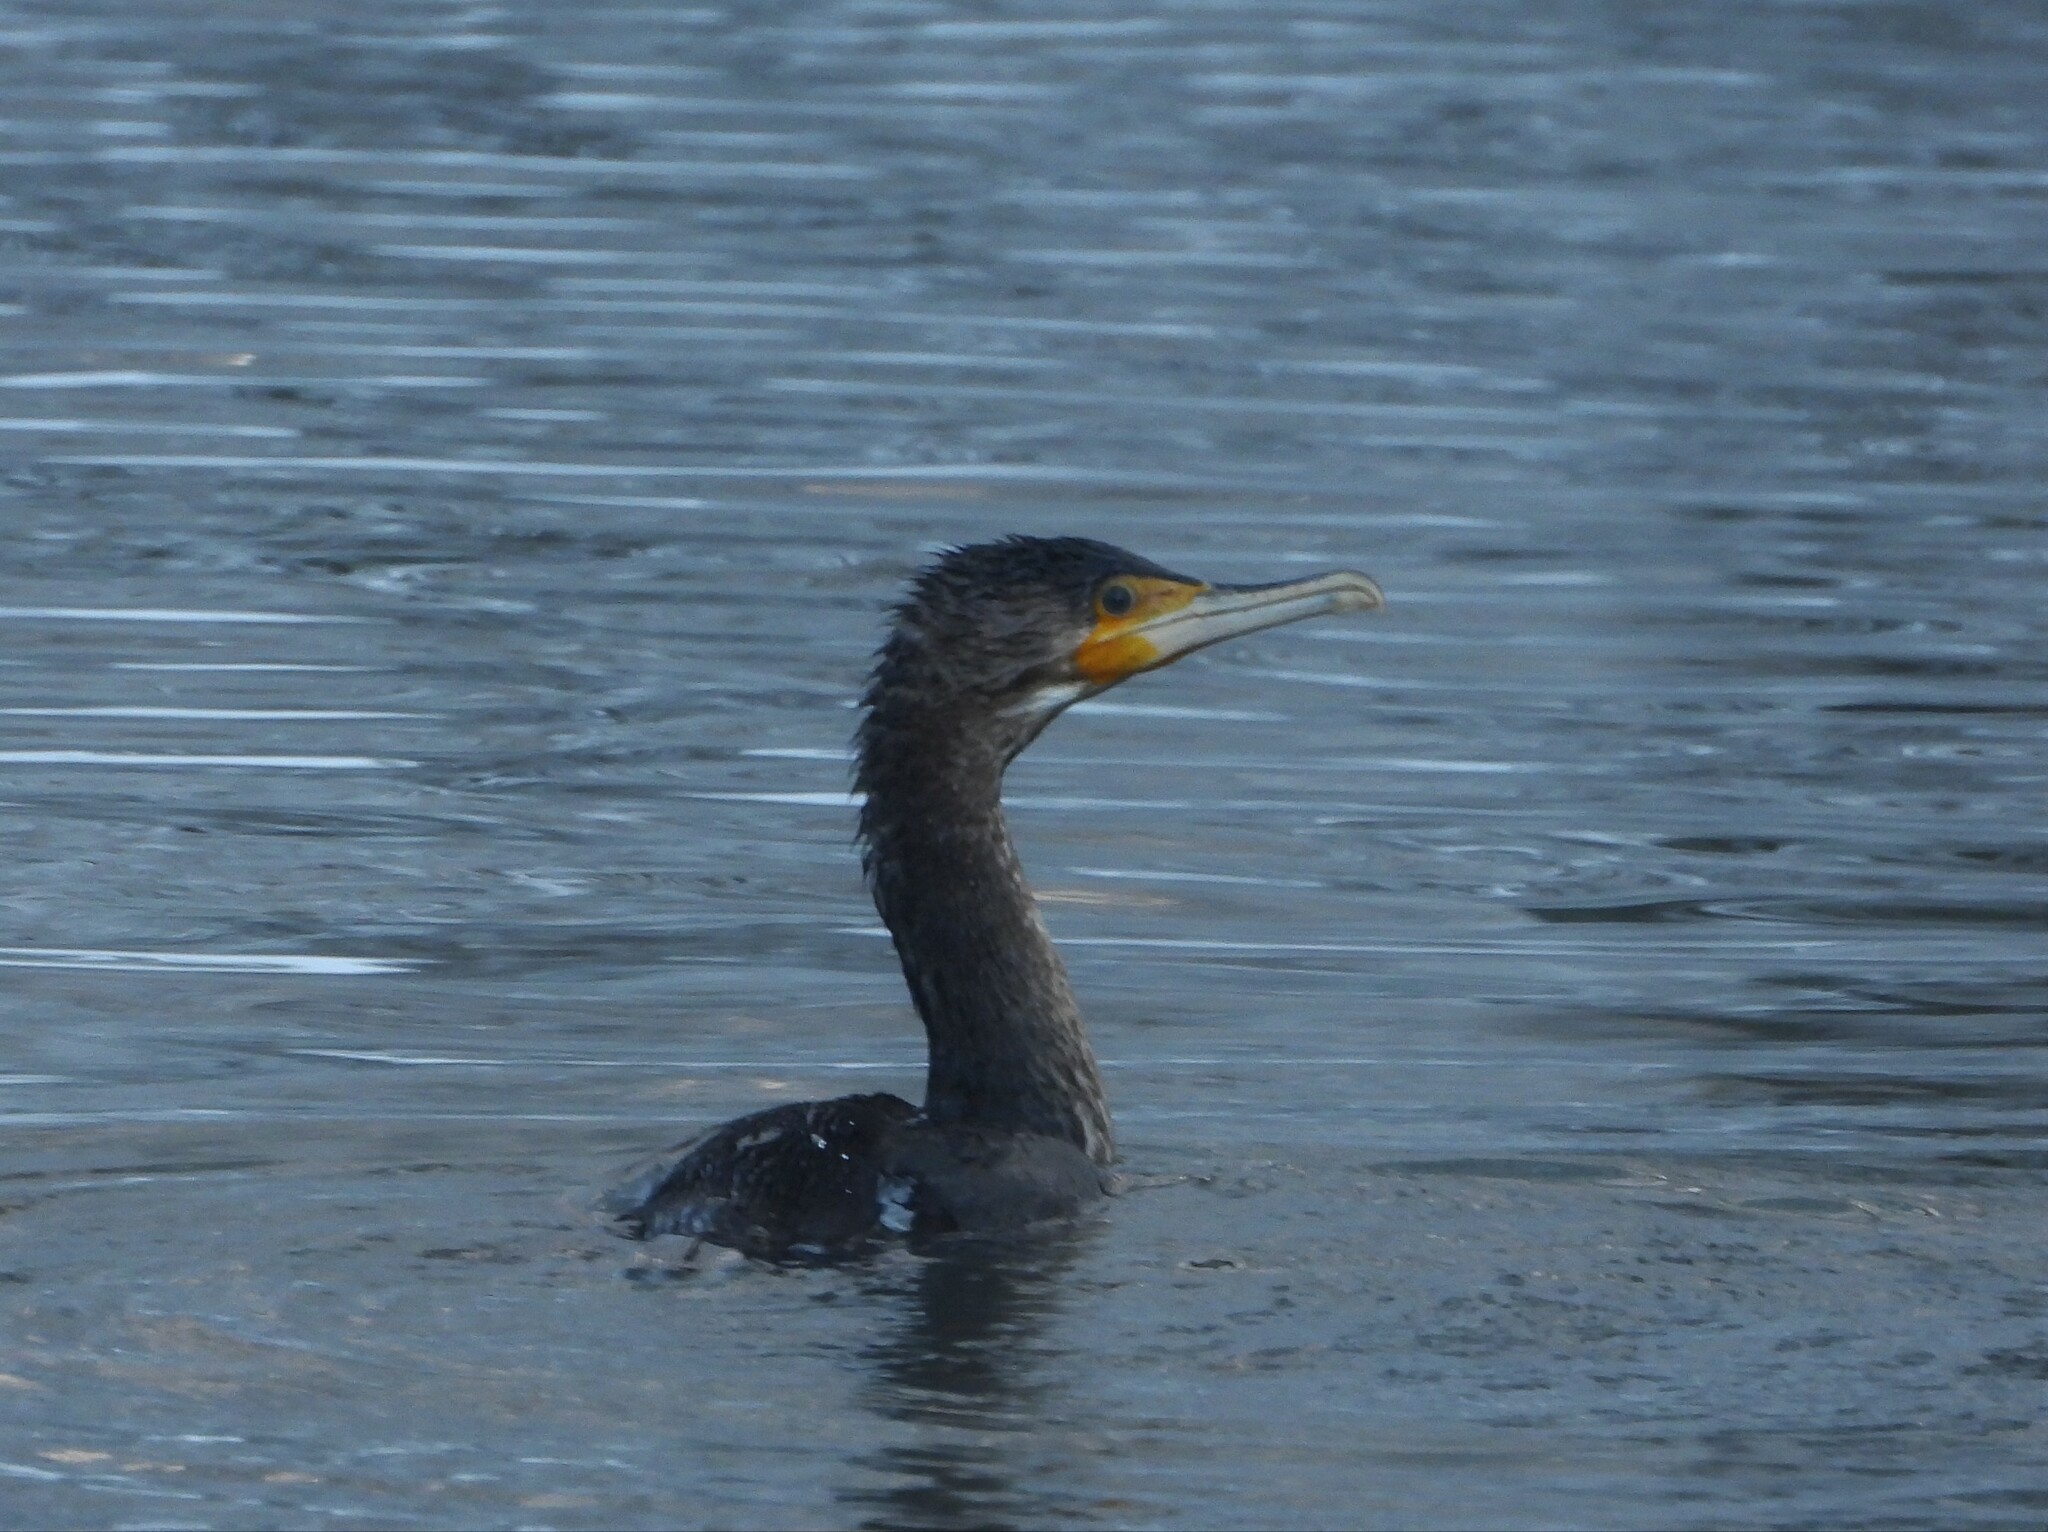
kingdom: Animalia
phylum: Chordata
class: Aves
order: Suliformes
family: Phalacrocoracidae
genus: Phalacrocorax
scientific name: Phalacrocorax carbo
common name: Great cormorant
